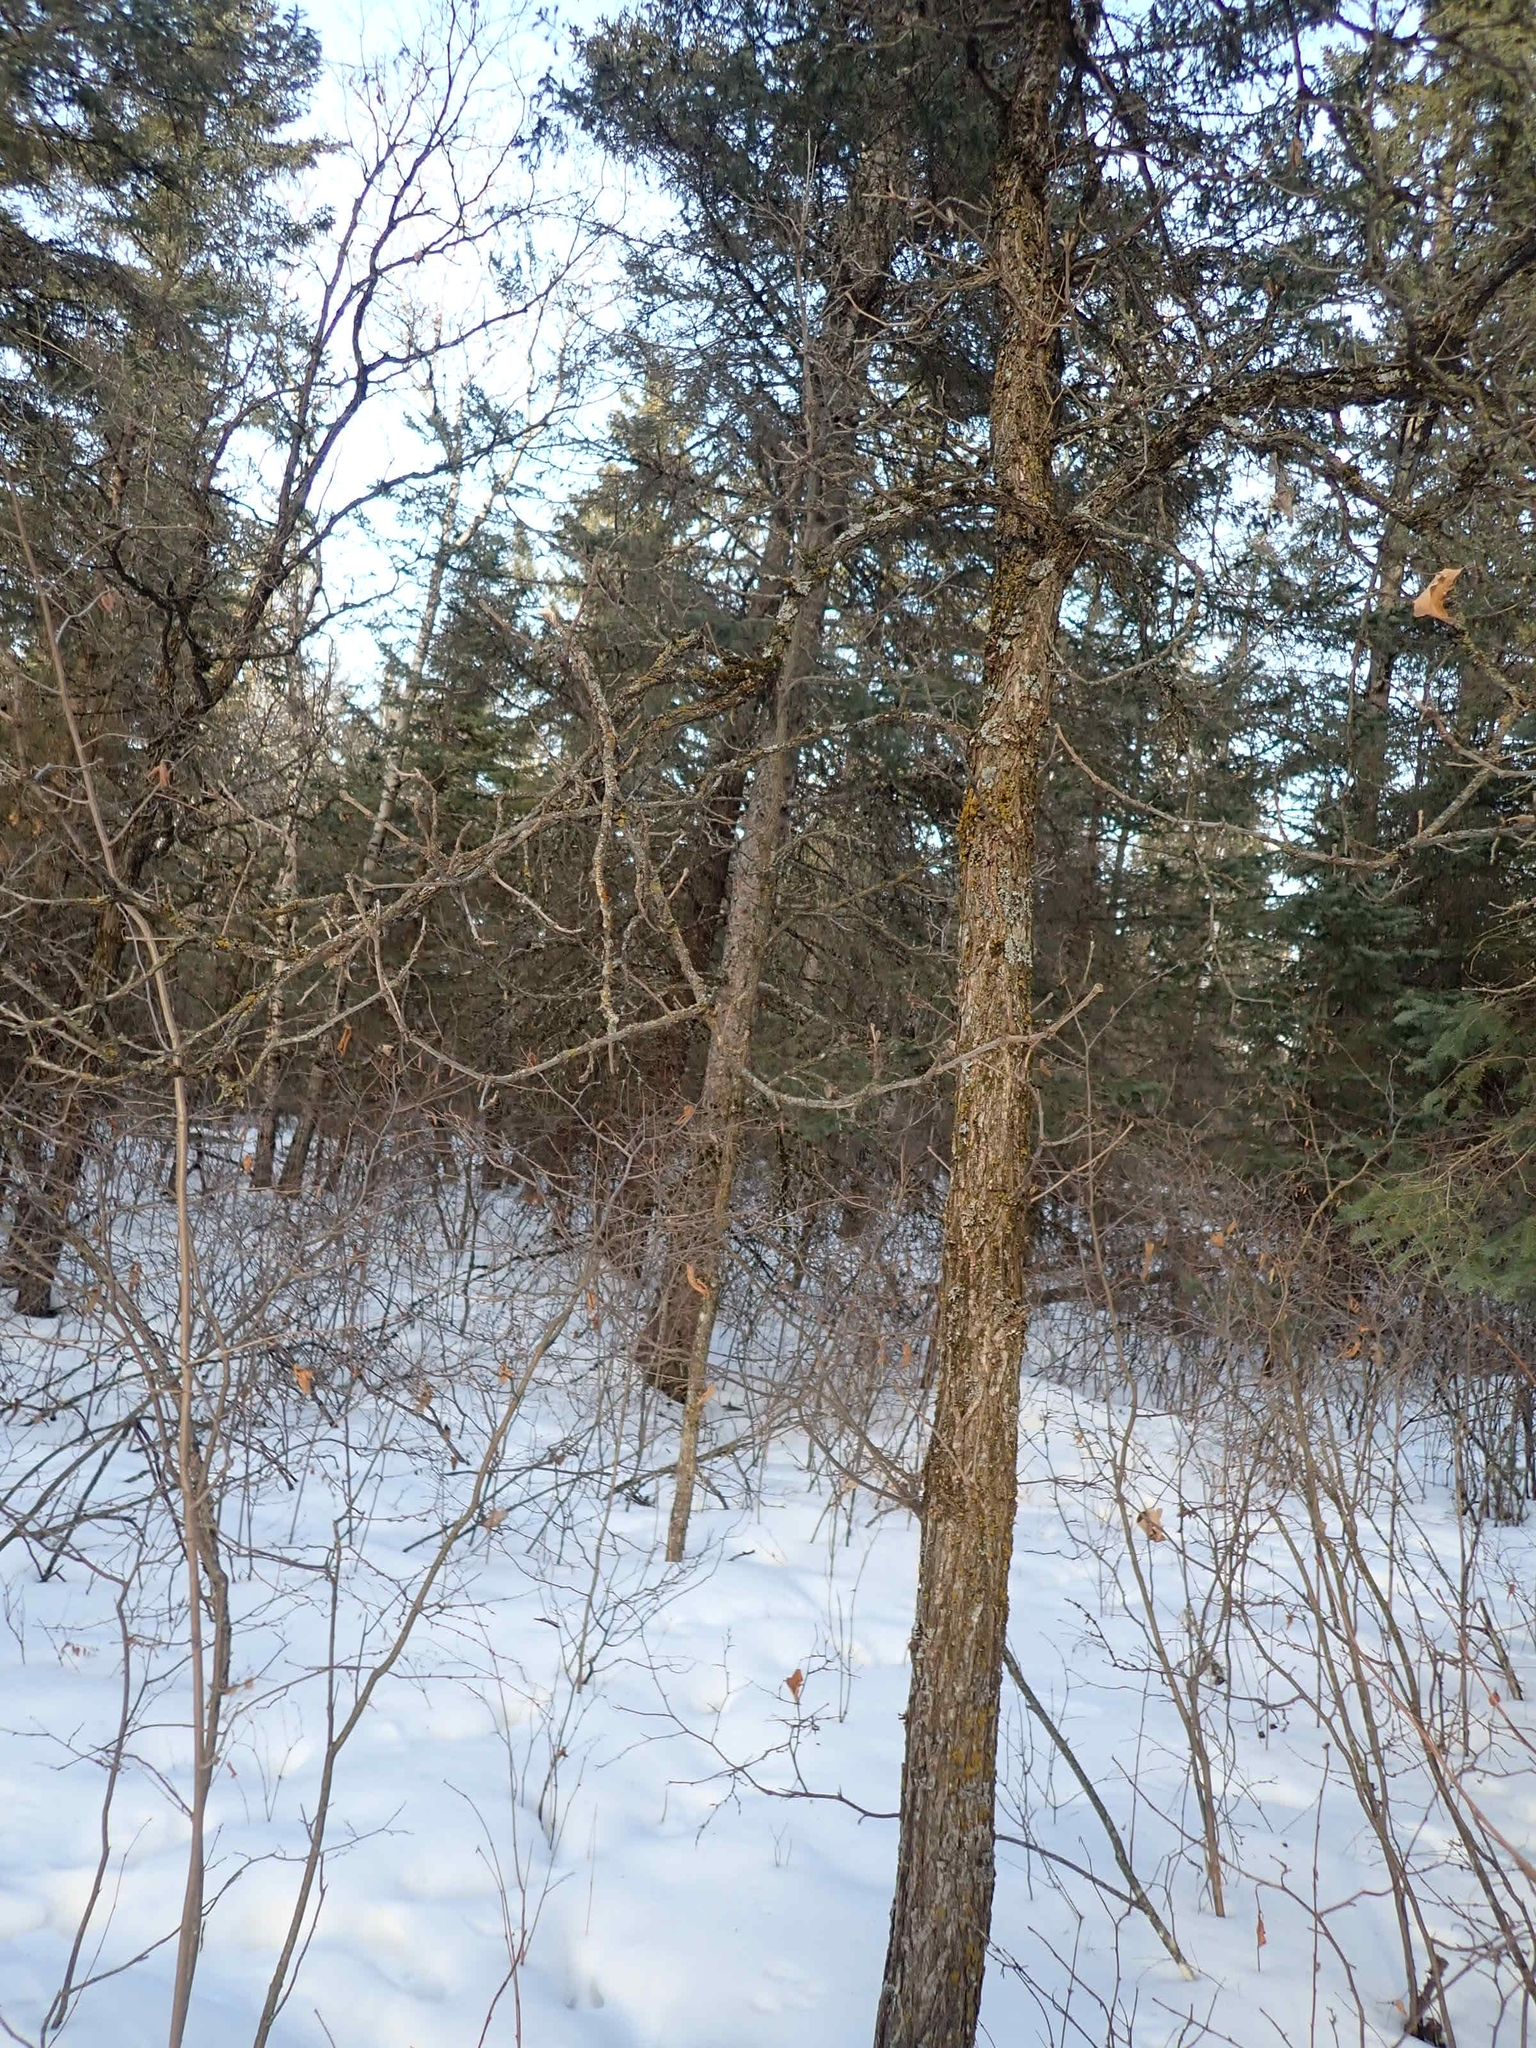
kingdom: Plantae
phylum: Tracheophyta
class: Magnoliopsida
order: Fagales
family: Fagaceae
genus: Quercus
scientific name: Quercus macrocarpa
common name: Bur oak
